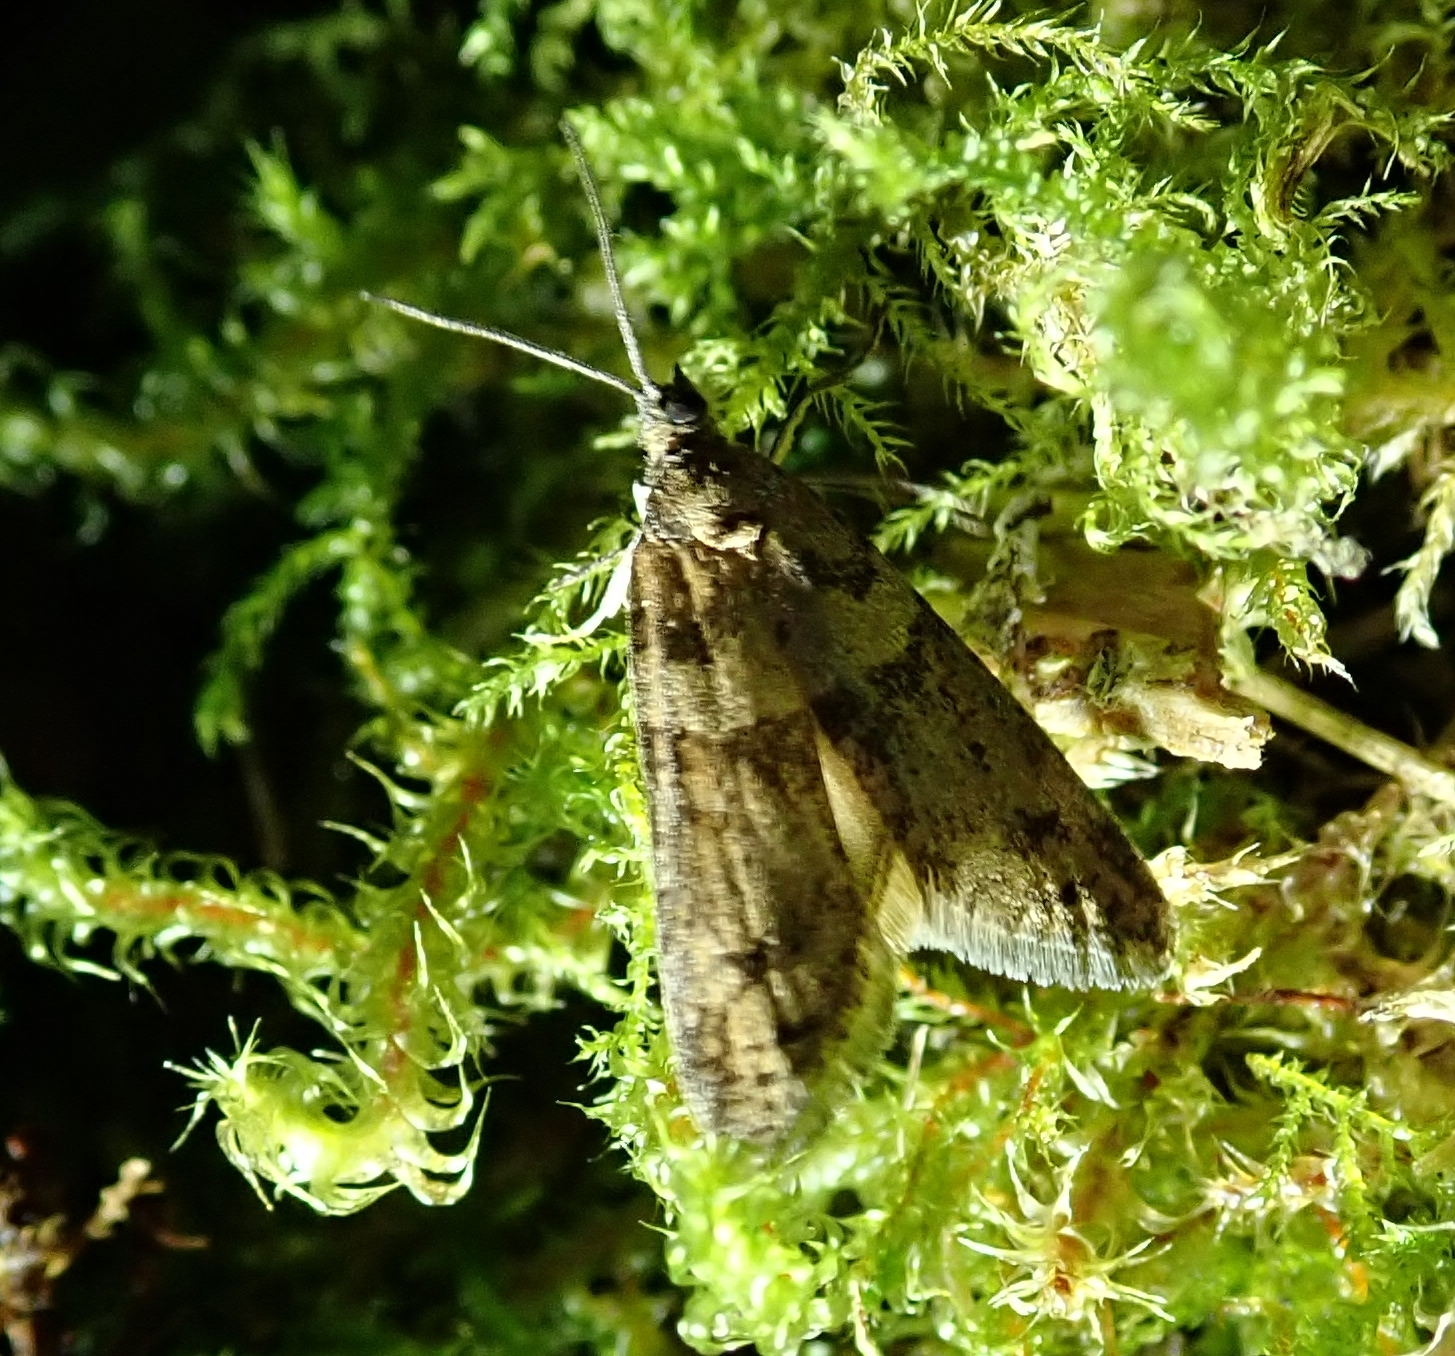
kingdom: Animalia
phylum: Arthropoda
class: Insecta
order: Lepidoptera
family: Tortricidae
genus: Tortricodes
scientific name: Tortricodes alternella
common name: Winter shade
